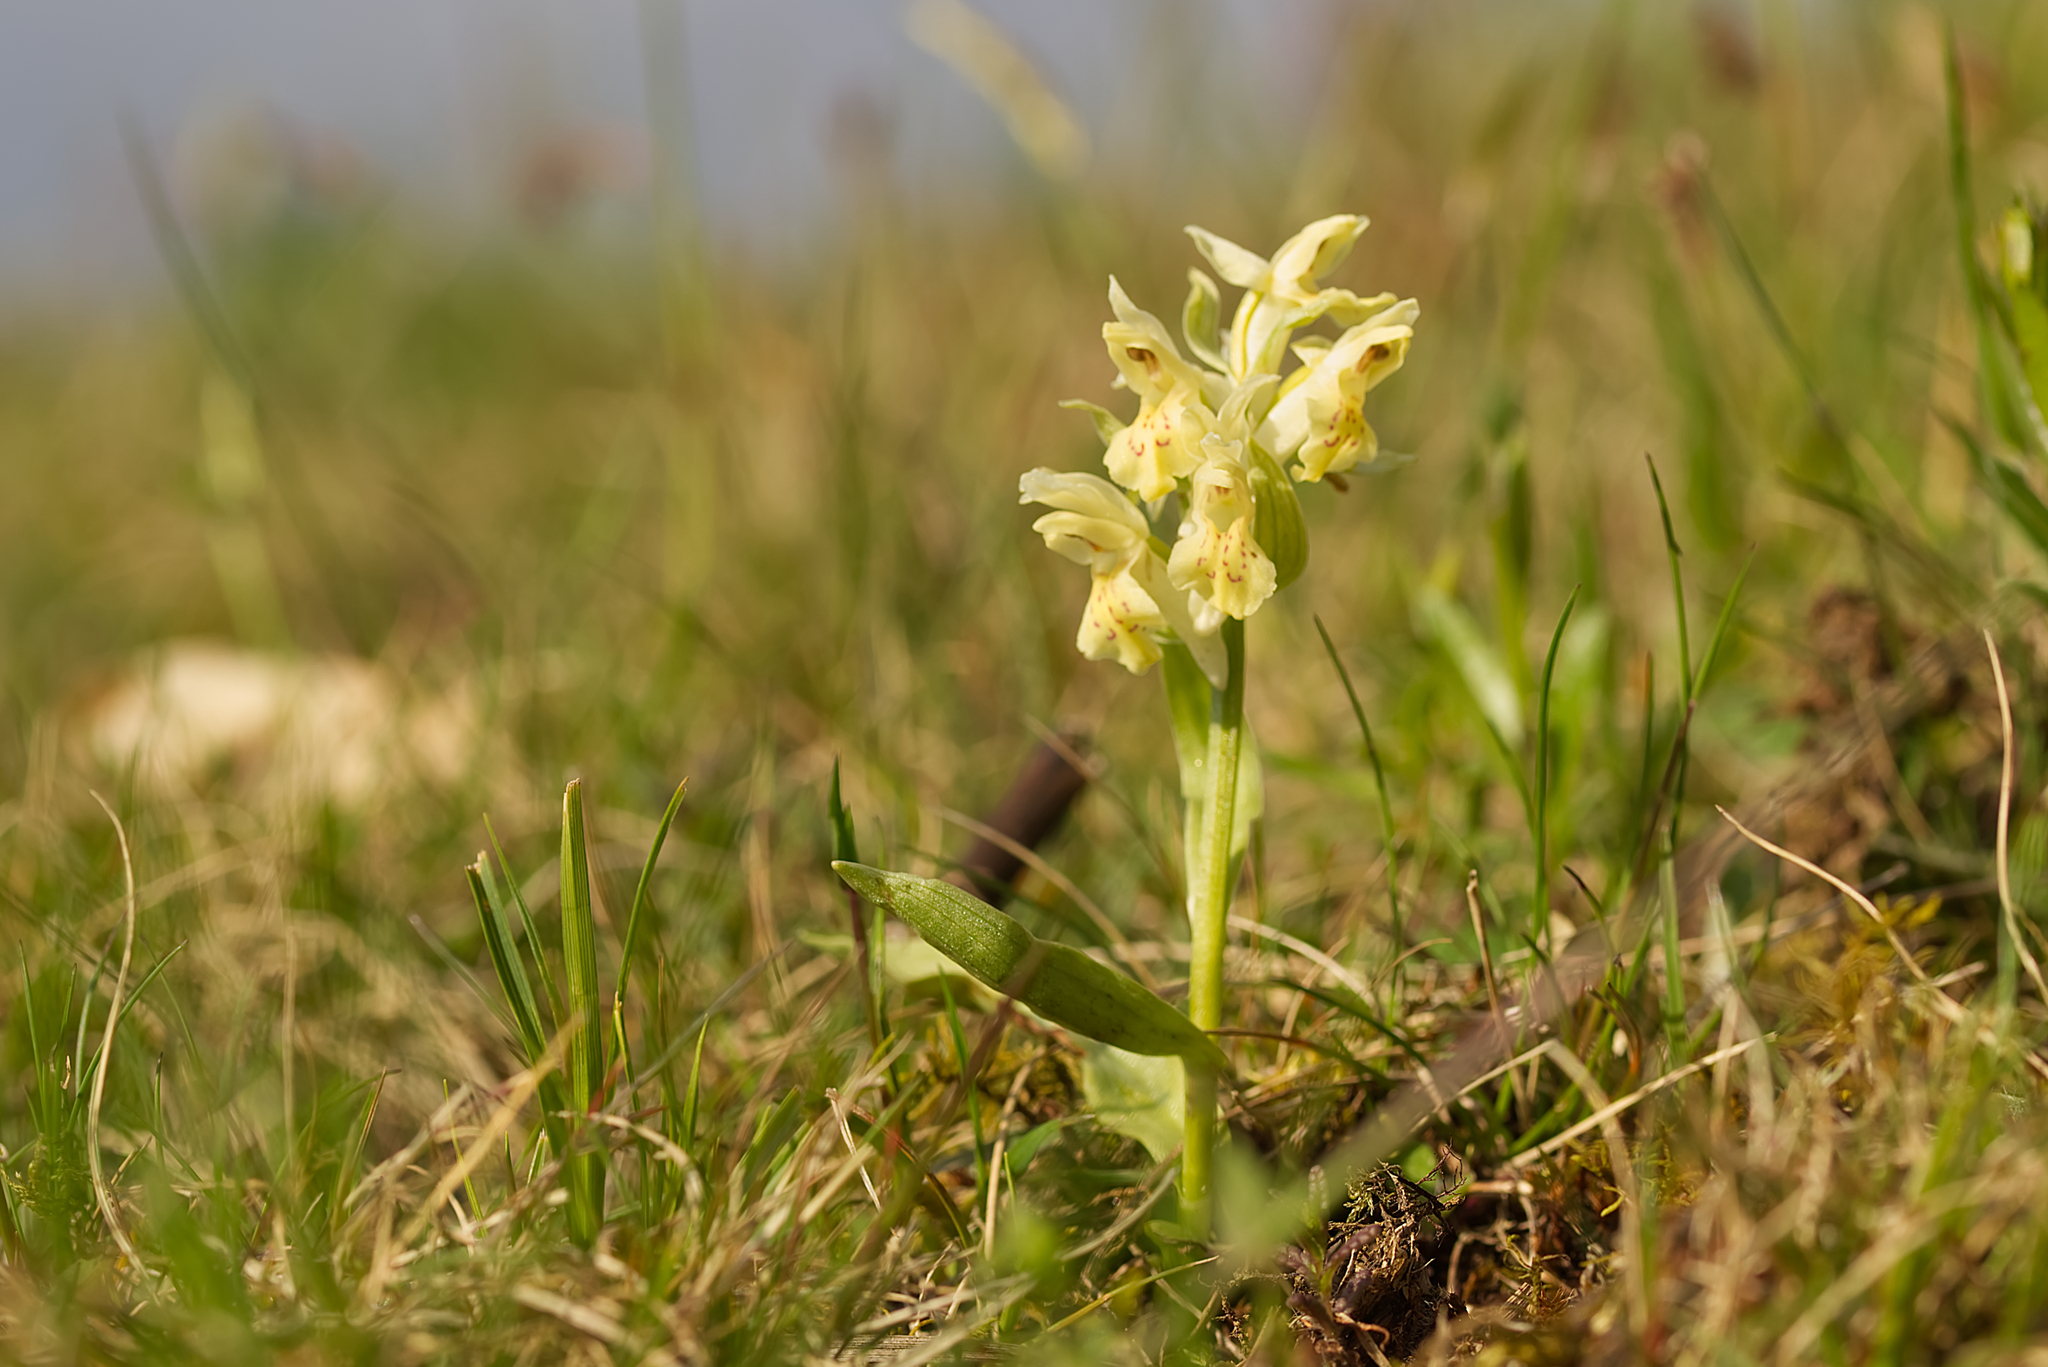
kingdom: Plantae
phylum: Tracheophyta
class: Liliopsida
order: Asparagales
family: Orchidaceae
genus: Dactylorhiza
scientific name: Dactylorhiza sambucina
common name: Elder-flowered orchid
